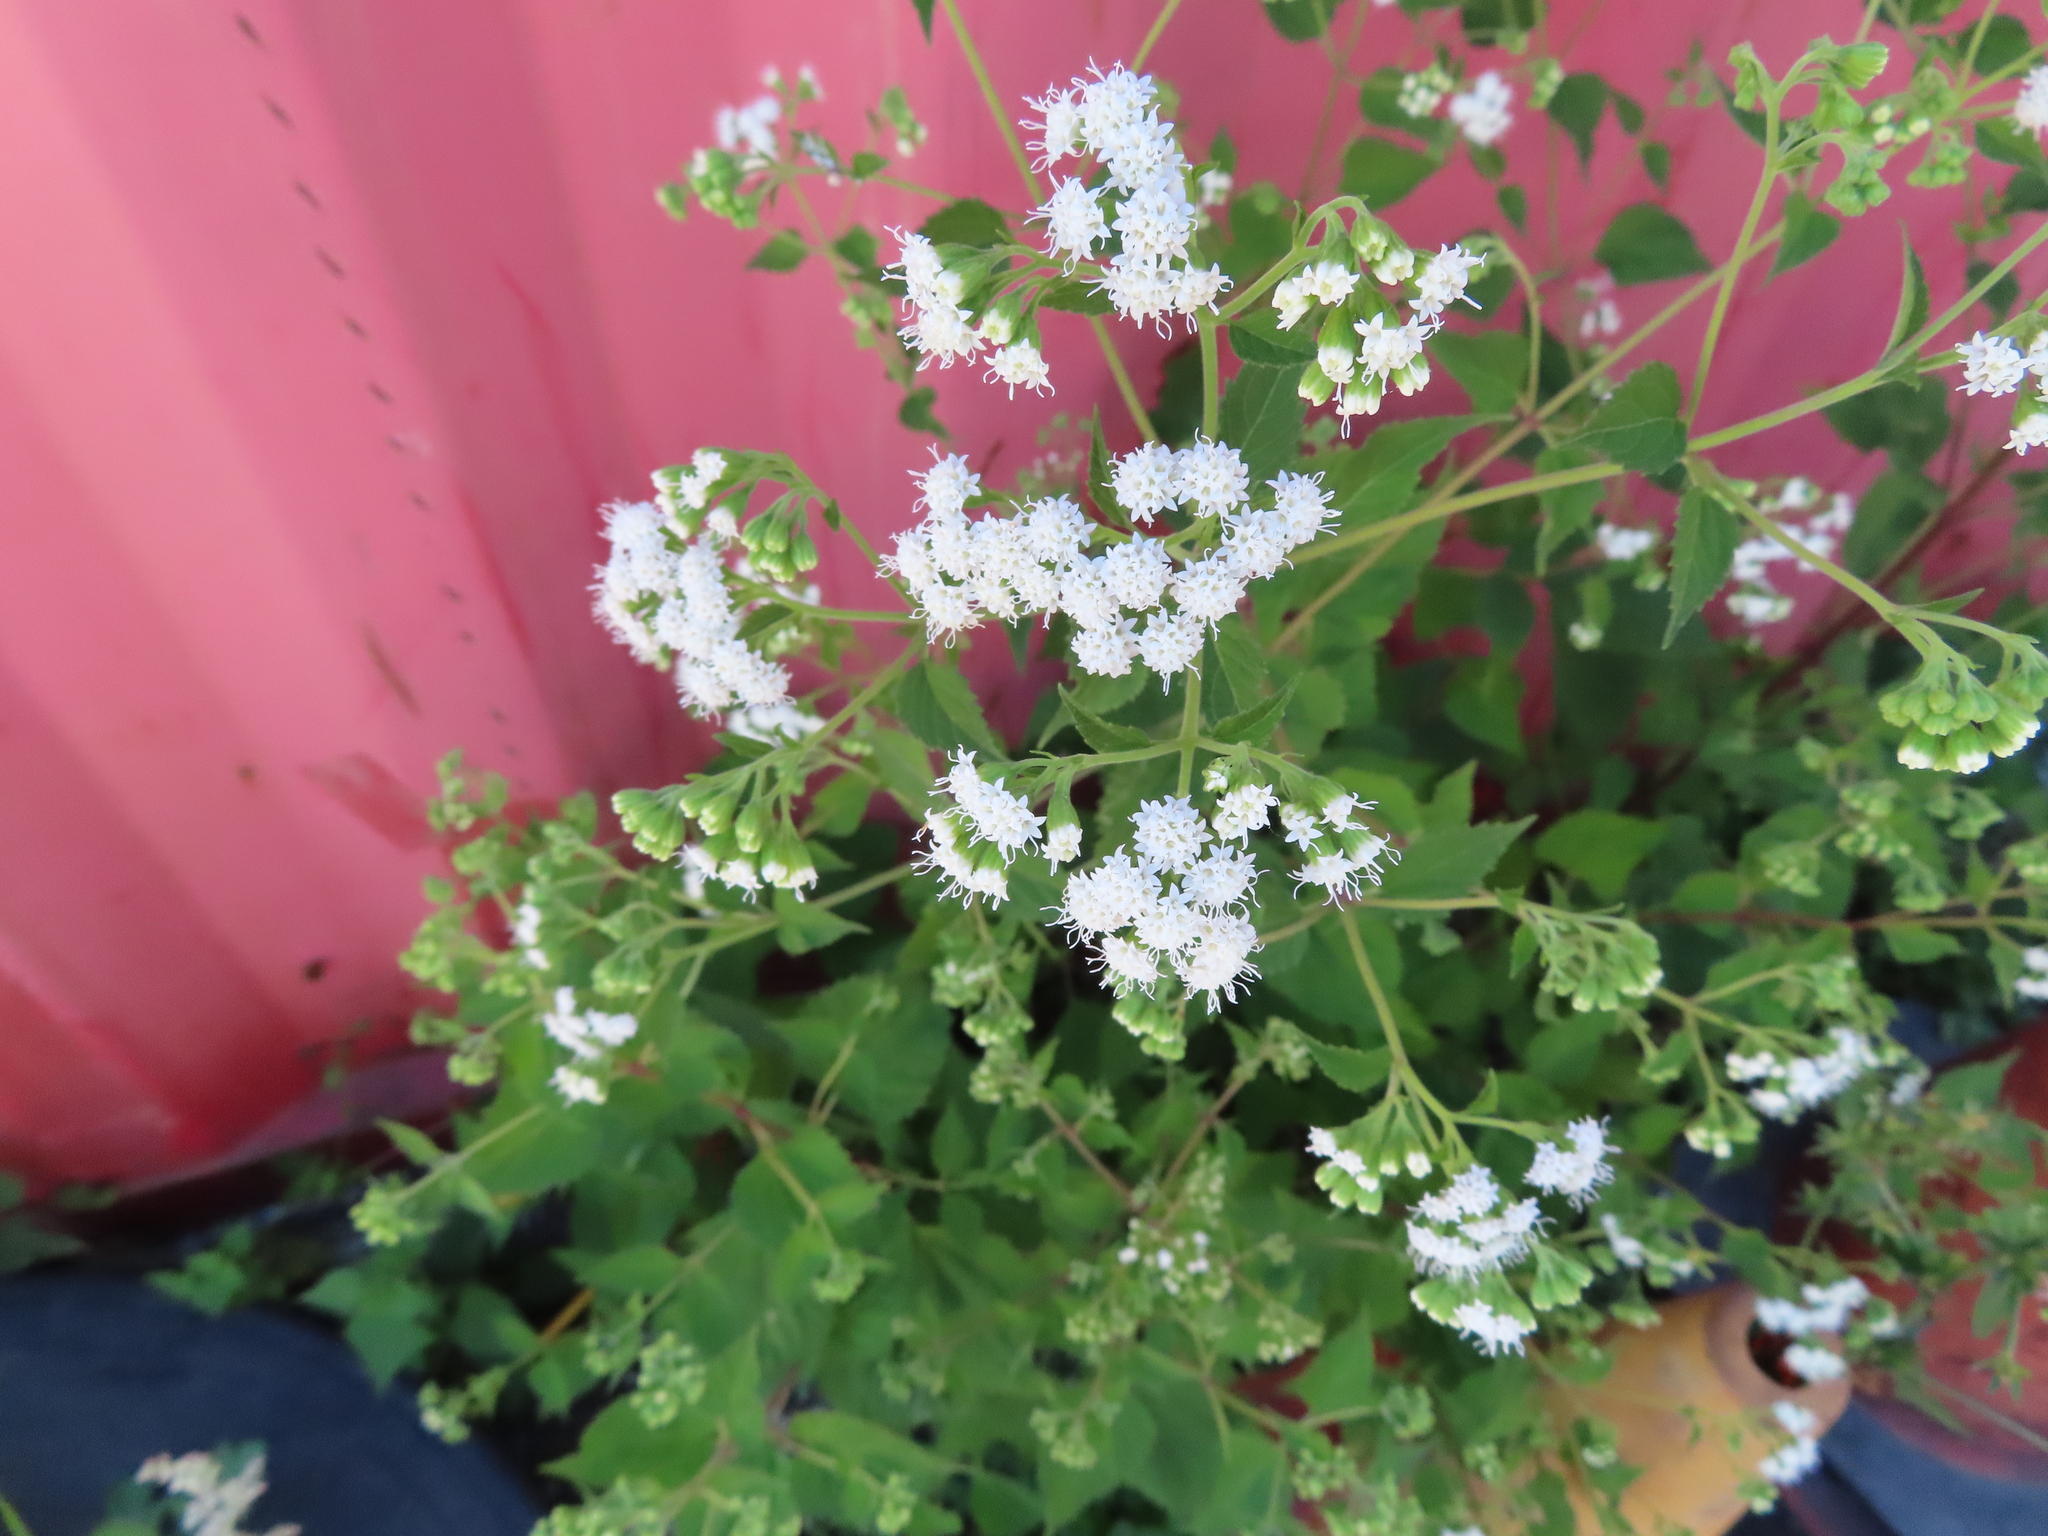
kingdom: Plantae
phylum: Tracheophyta
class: Magnoliopsida
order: Asterales
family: Asteraceae
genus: Ageratina
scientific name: Ageratina altissima
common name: White snakeroot
